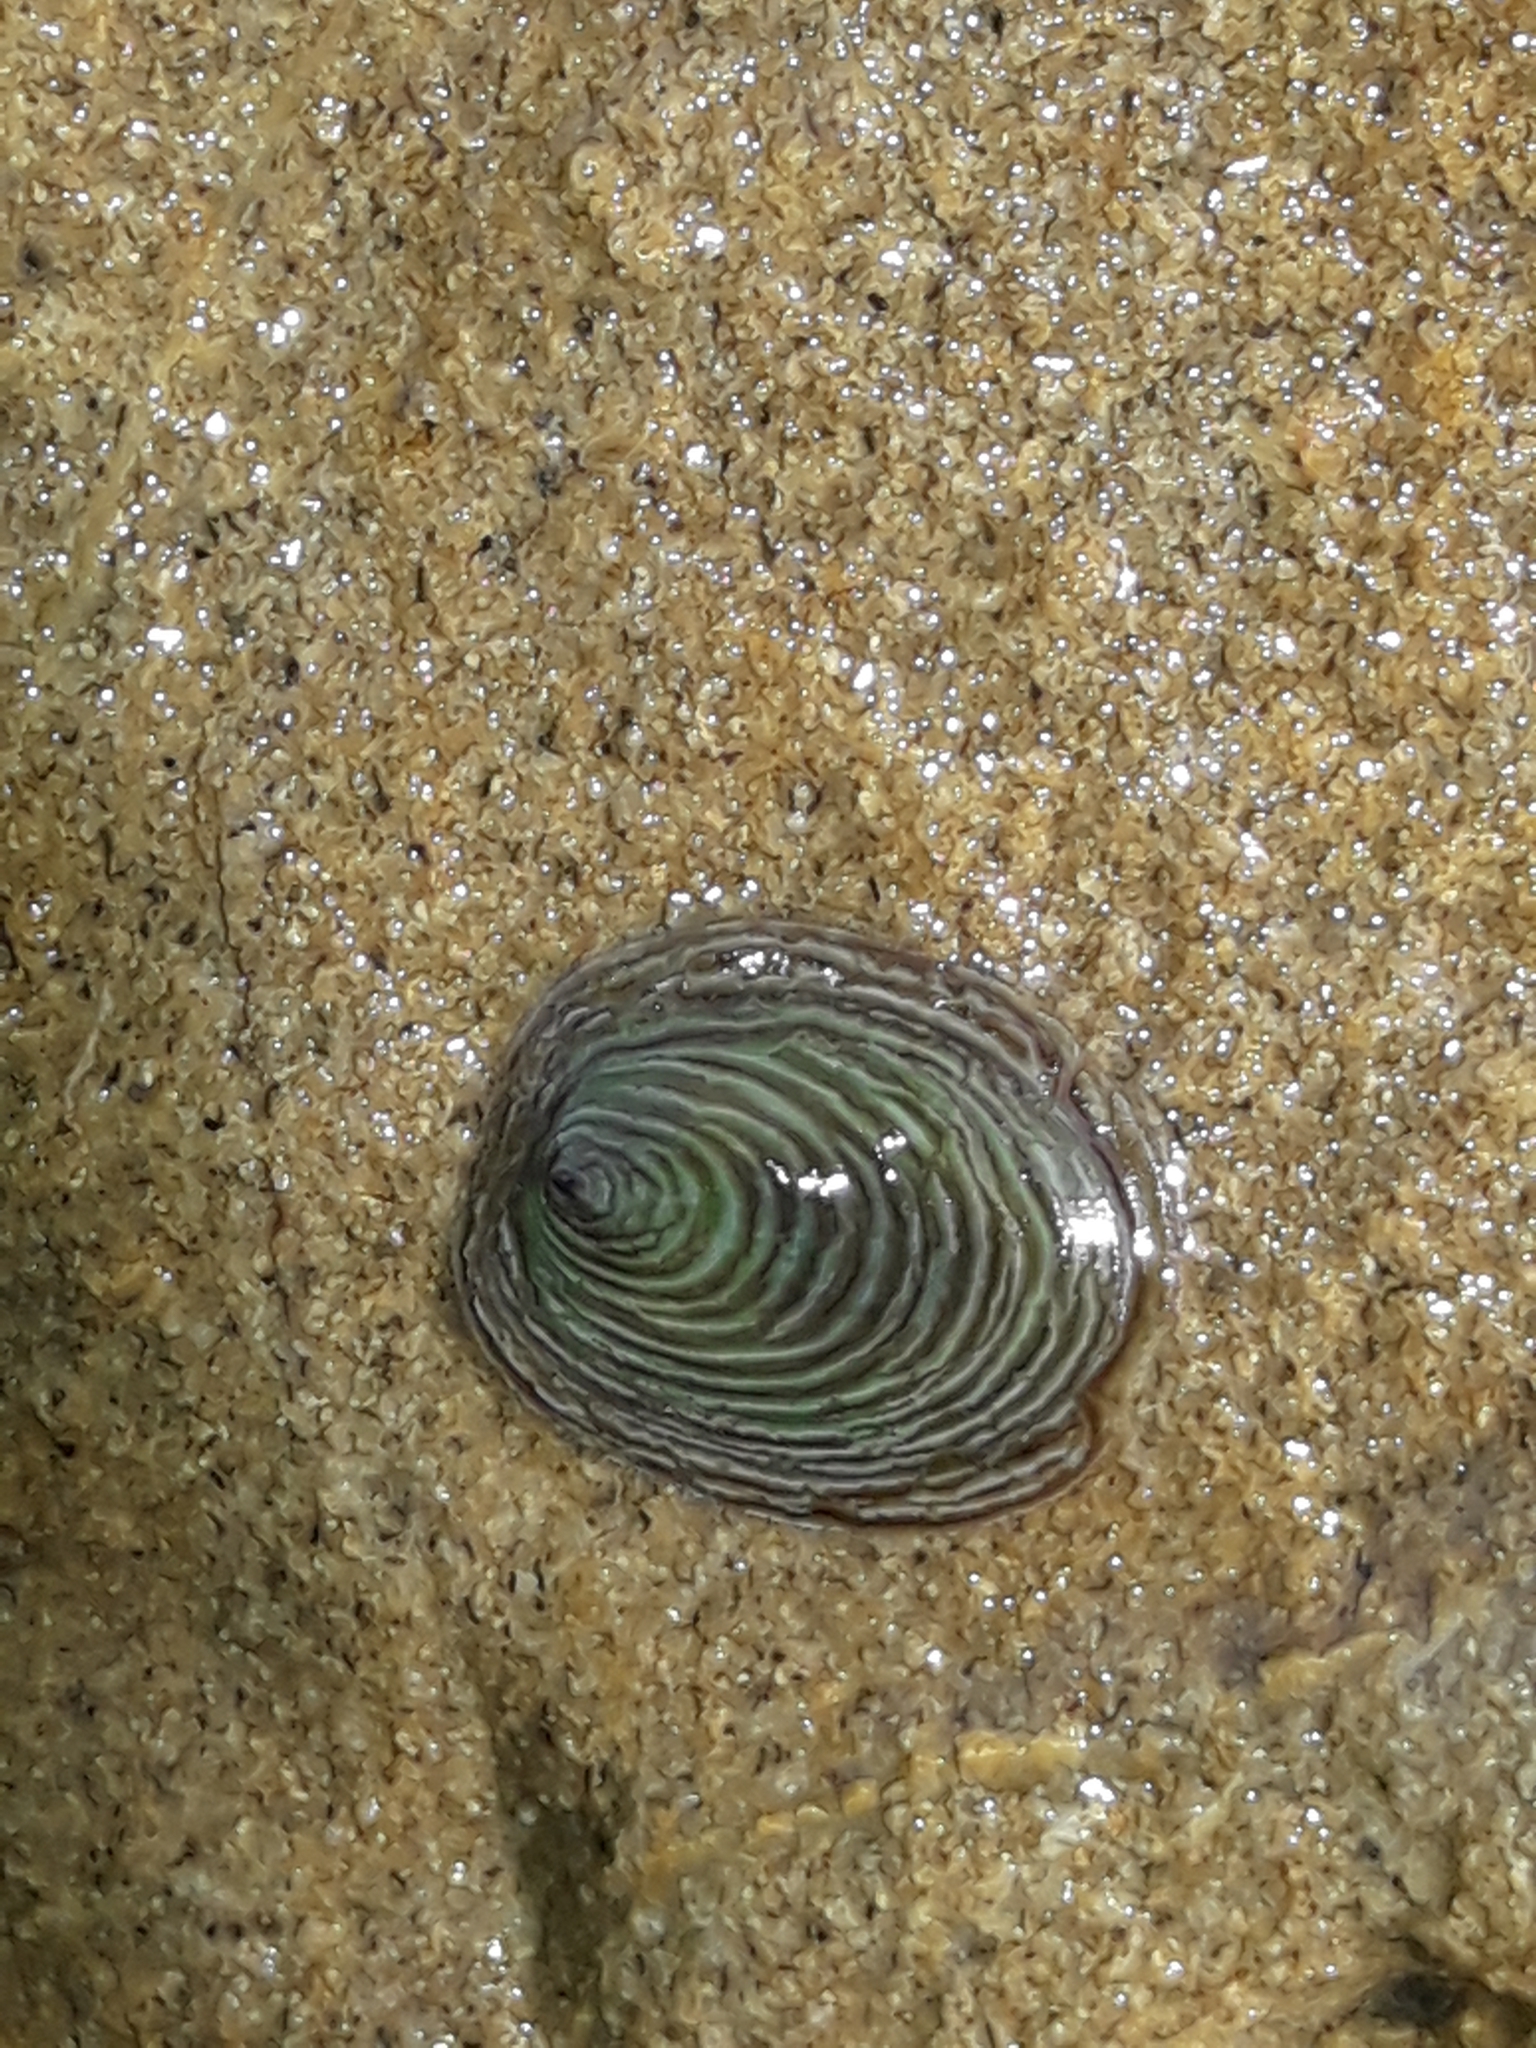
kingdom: Animalia
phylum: Mollusca
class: Gastropoda
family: Lottiidae
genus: Atalacmea
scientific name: Atalacmea fragilis
